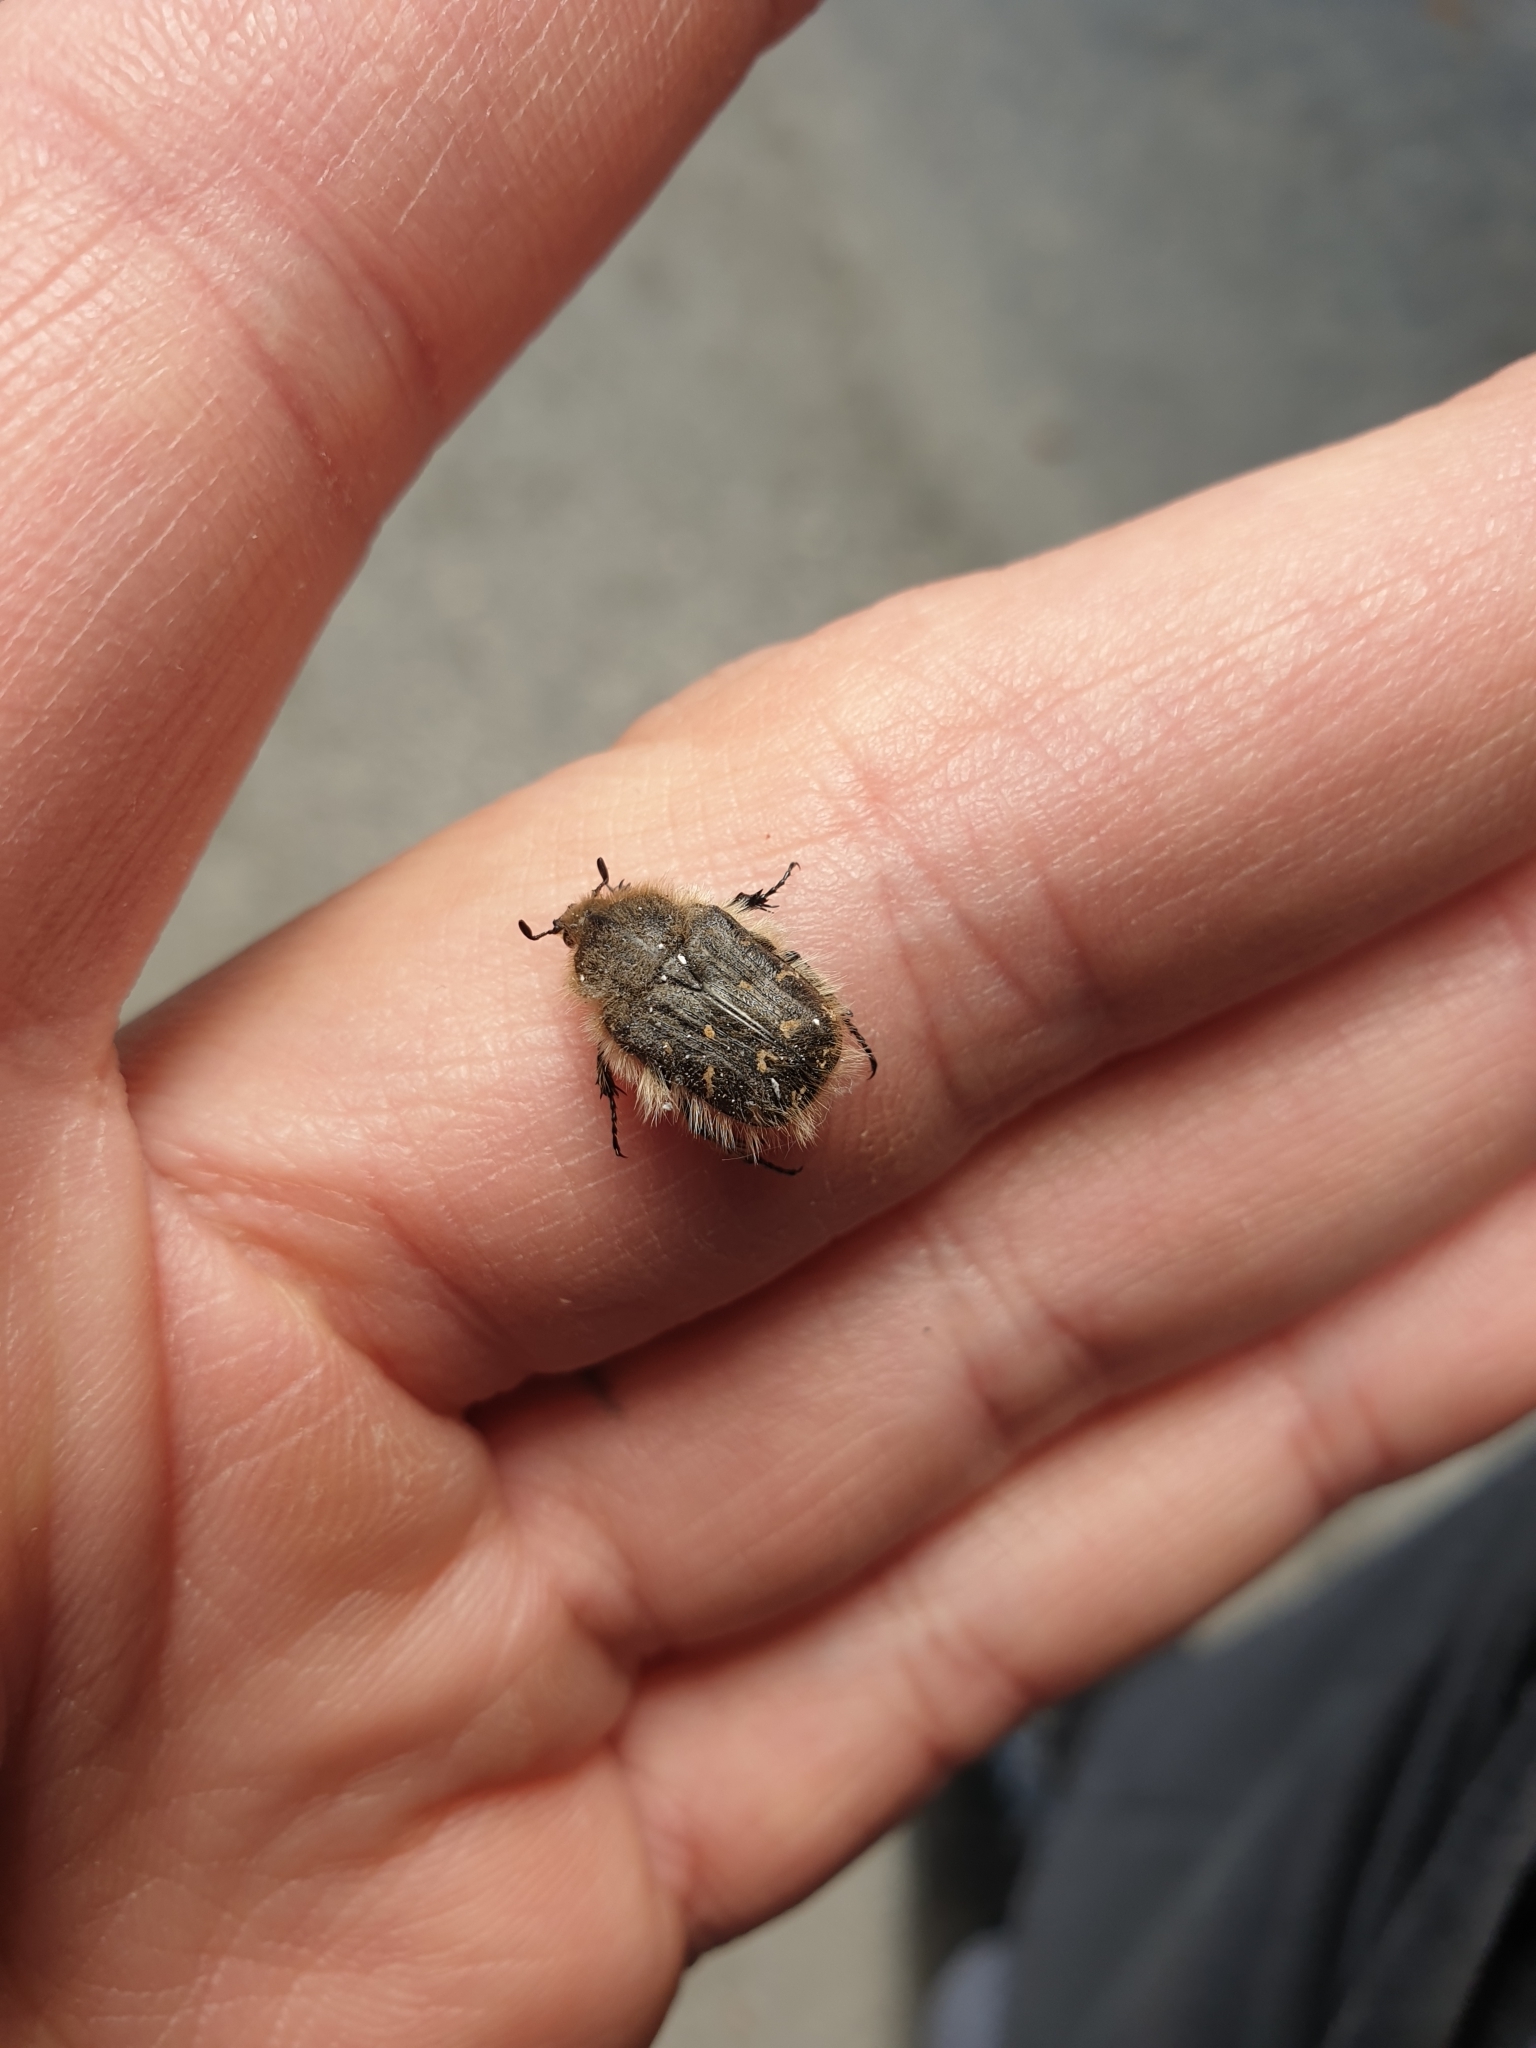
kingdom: Animalia
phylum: Arthropoda
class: Insecta
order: Coleoptera
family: Scarabaeidae
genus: Tropinota
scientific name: Tropinota hirta
